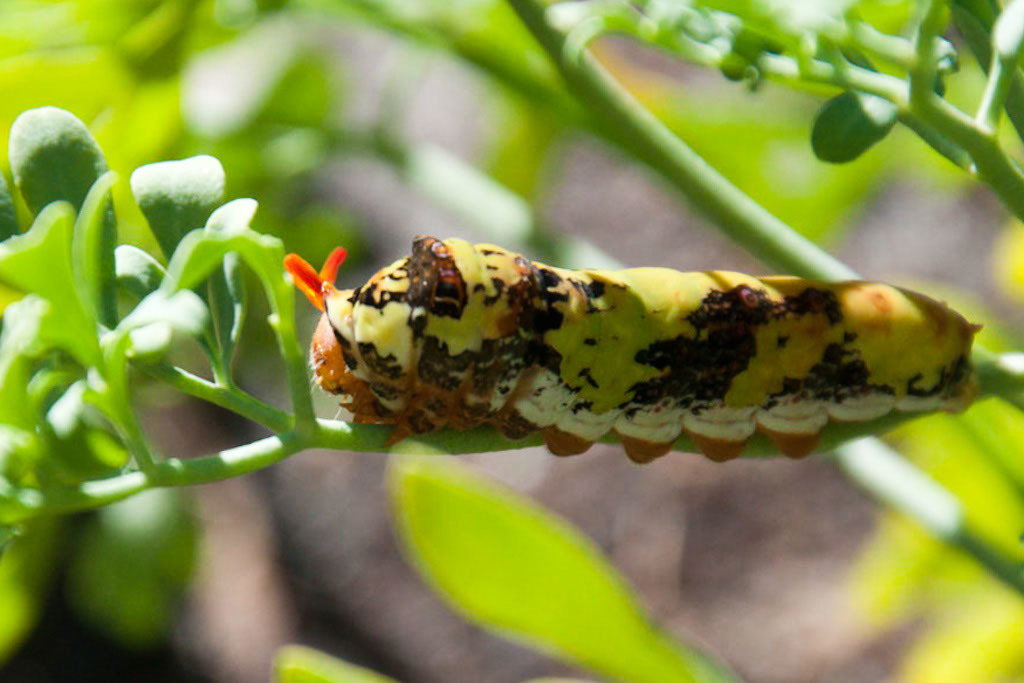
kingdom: Animalia
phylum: Arthropoda
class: Insecta
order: Lepidoptera
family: Papilionidae
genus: Papilio
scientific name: Papilio demodocus
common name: Christmas butterfly
